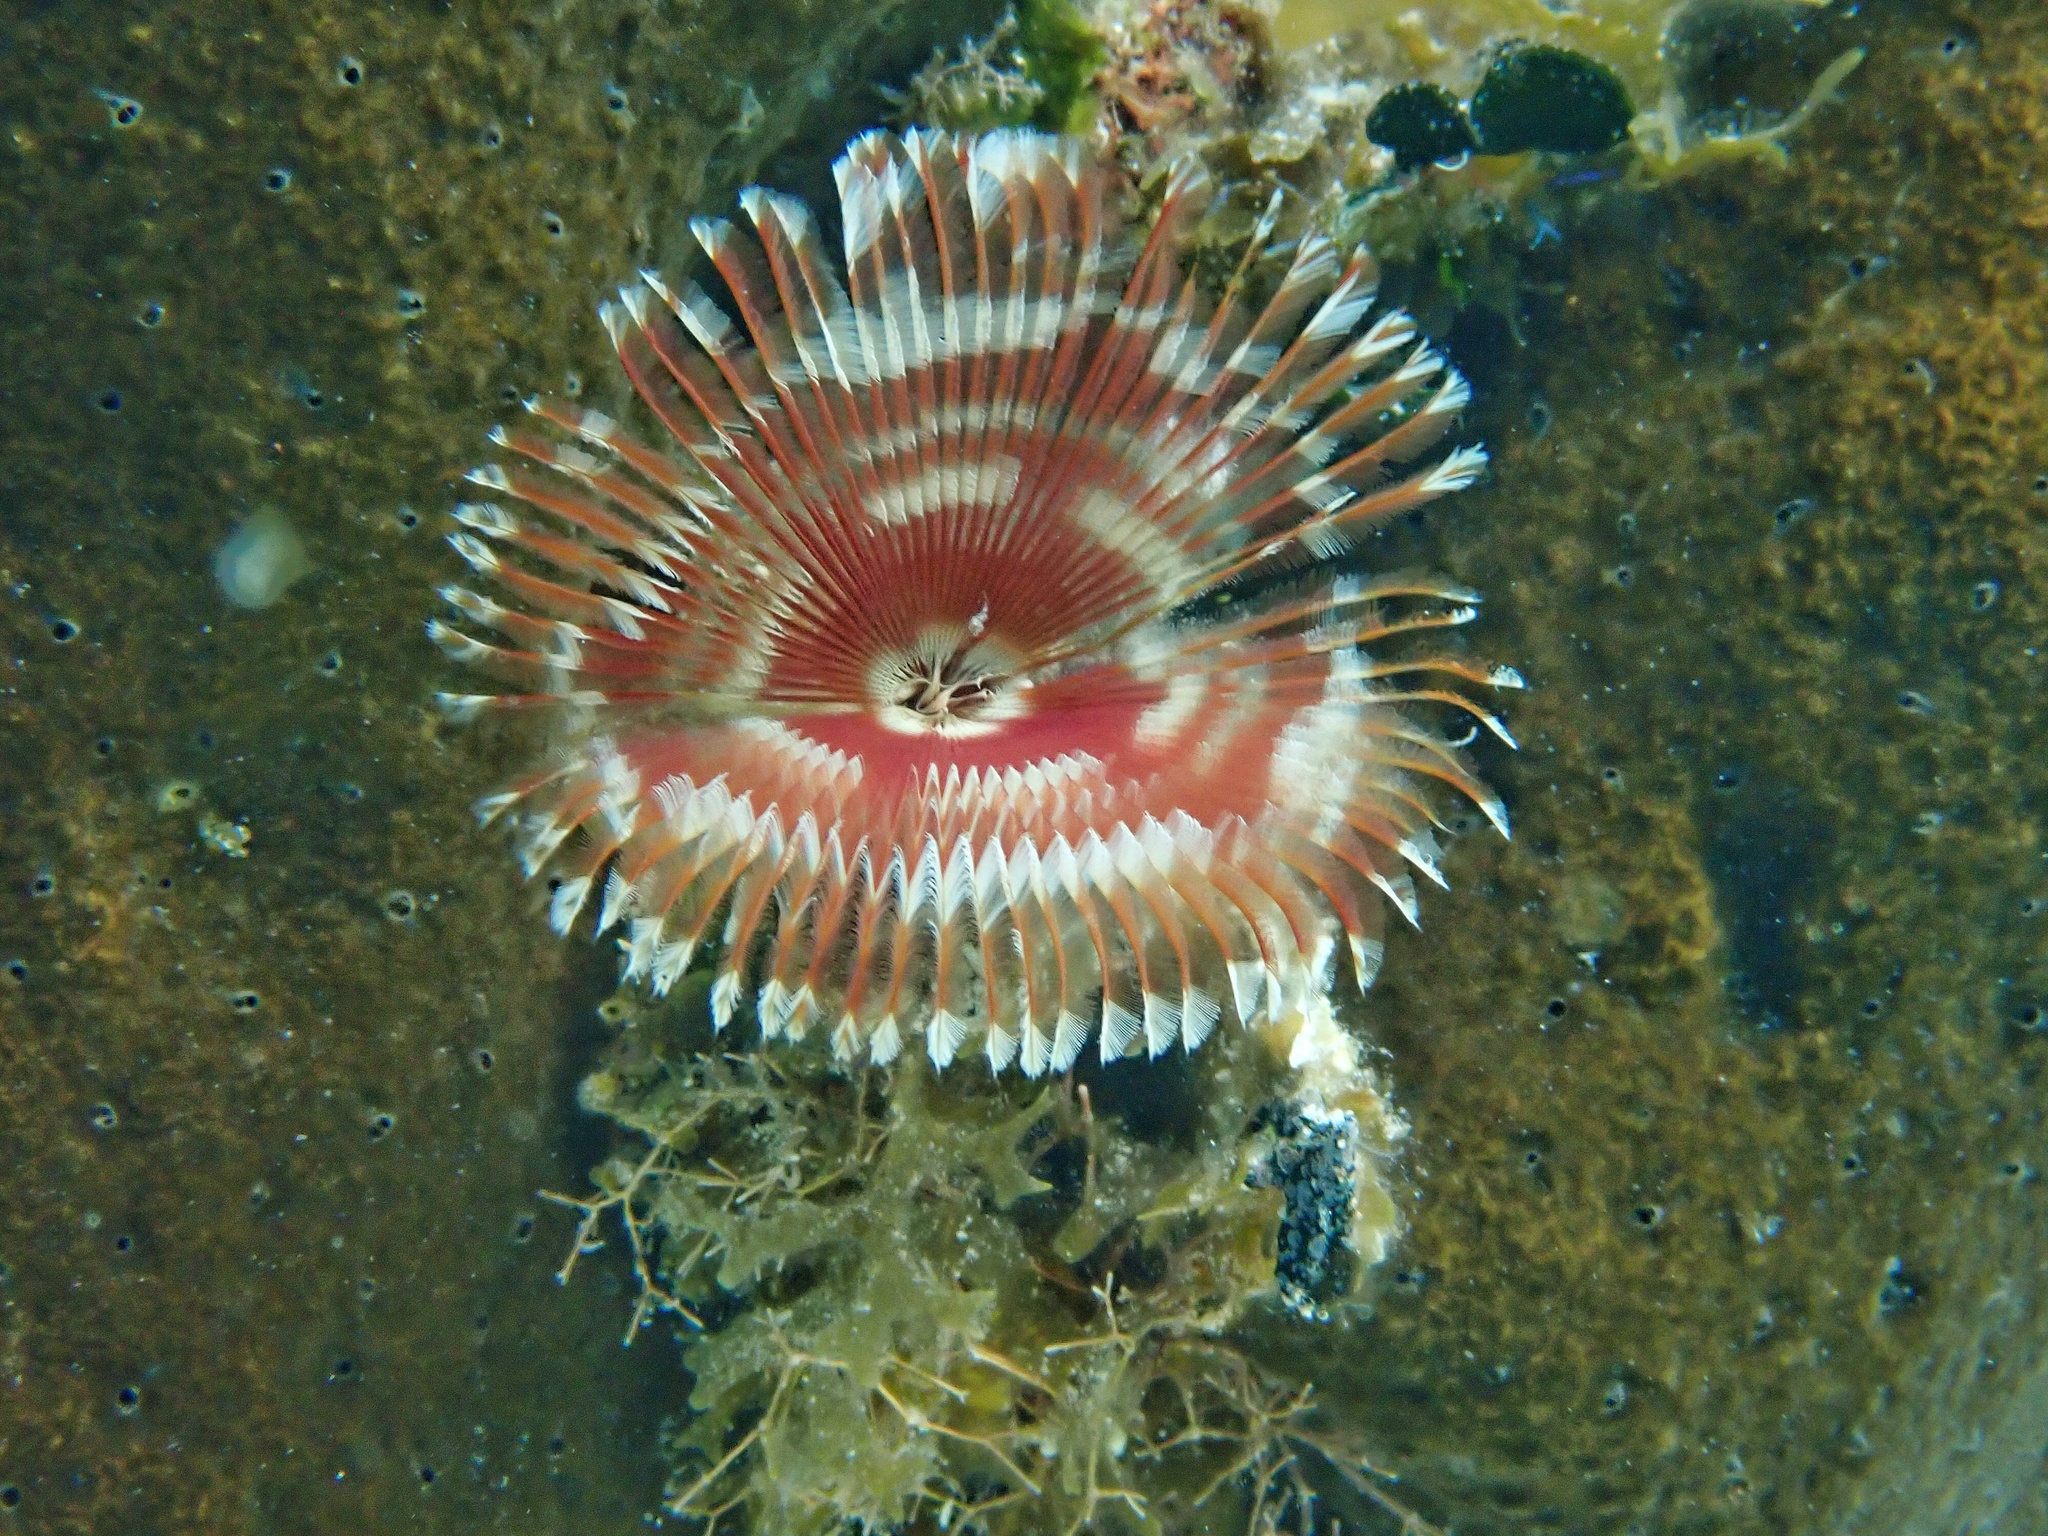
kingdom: Animalia
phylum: Annelida
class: Polychaeta
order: Sabellida
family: Sabellidae
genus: Anamobaea
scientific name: Anamobaea orstedii
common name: Split-crown feather duster
